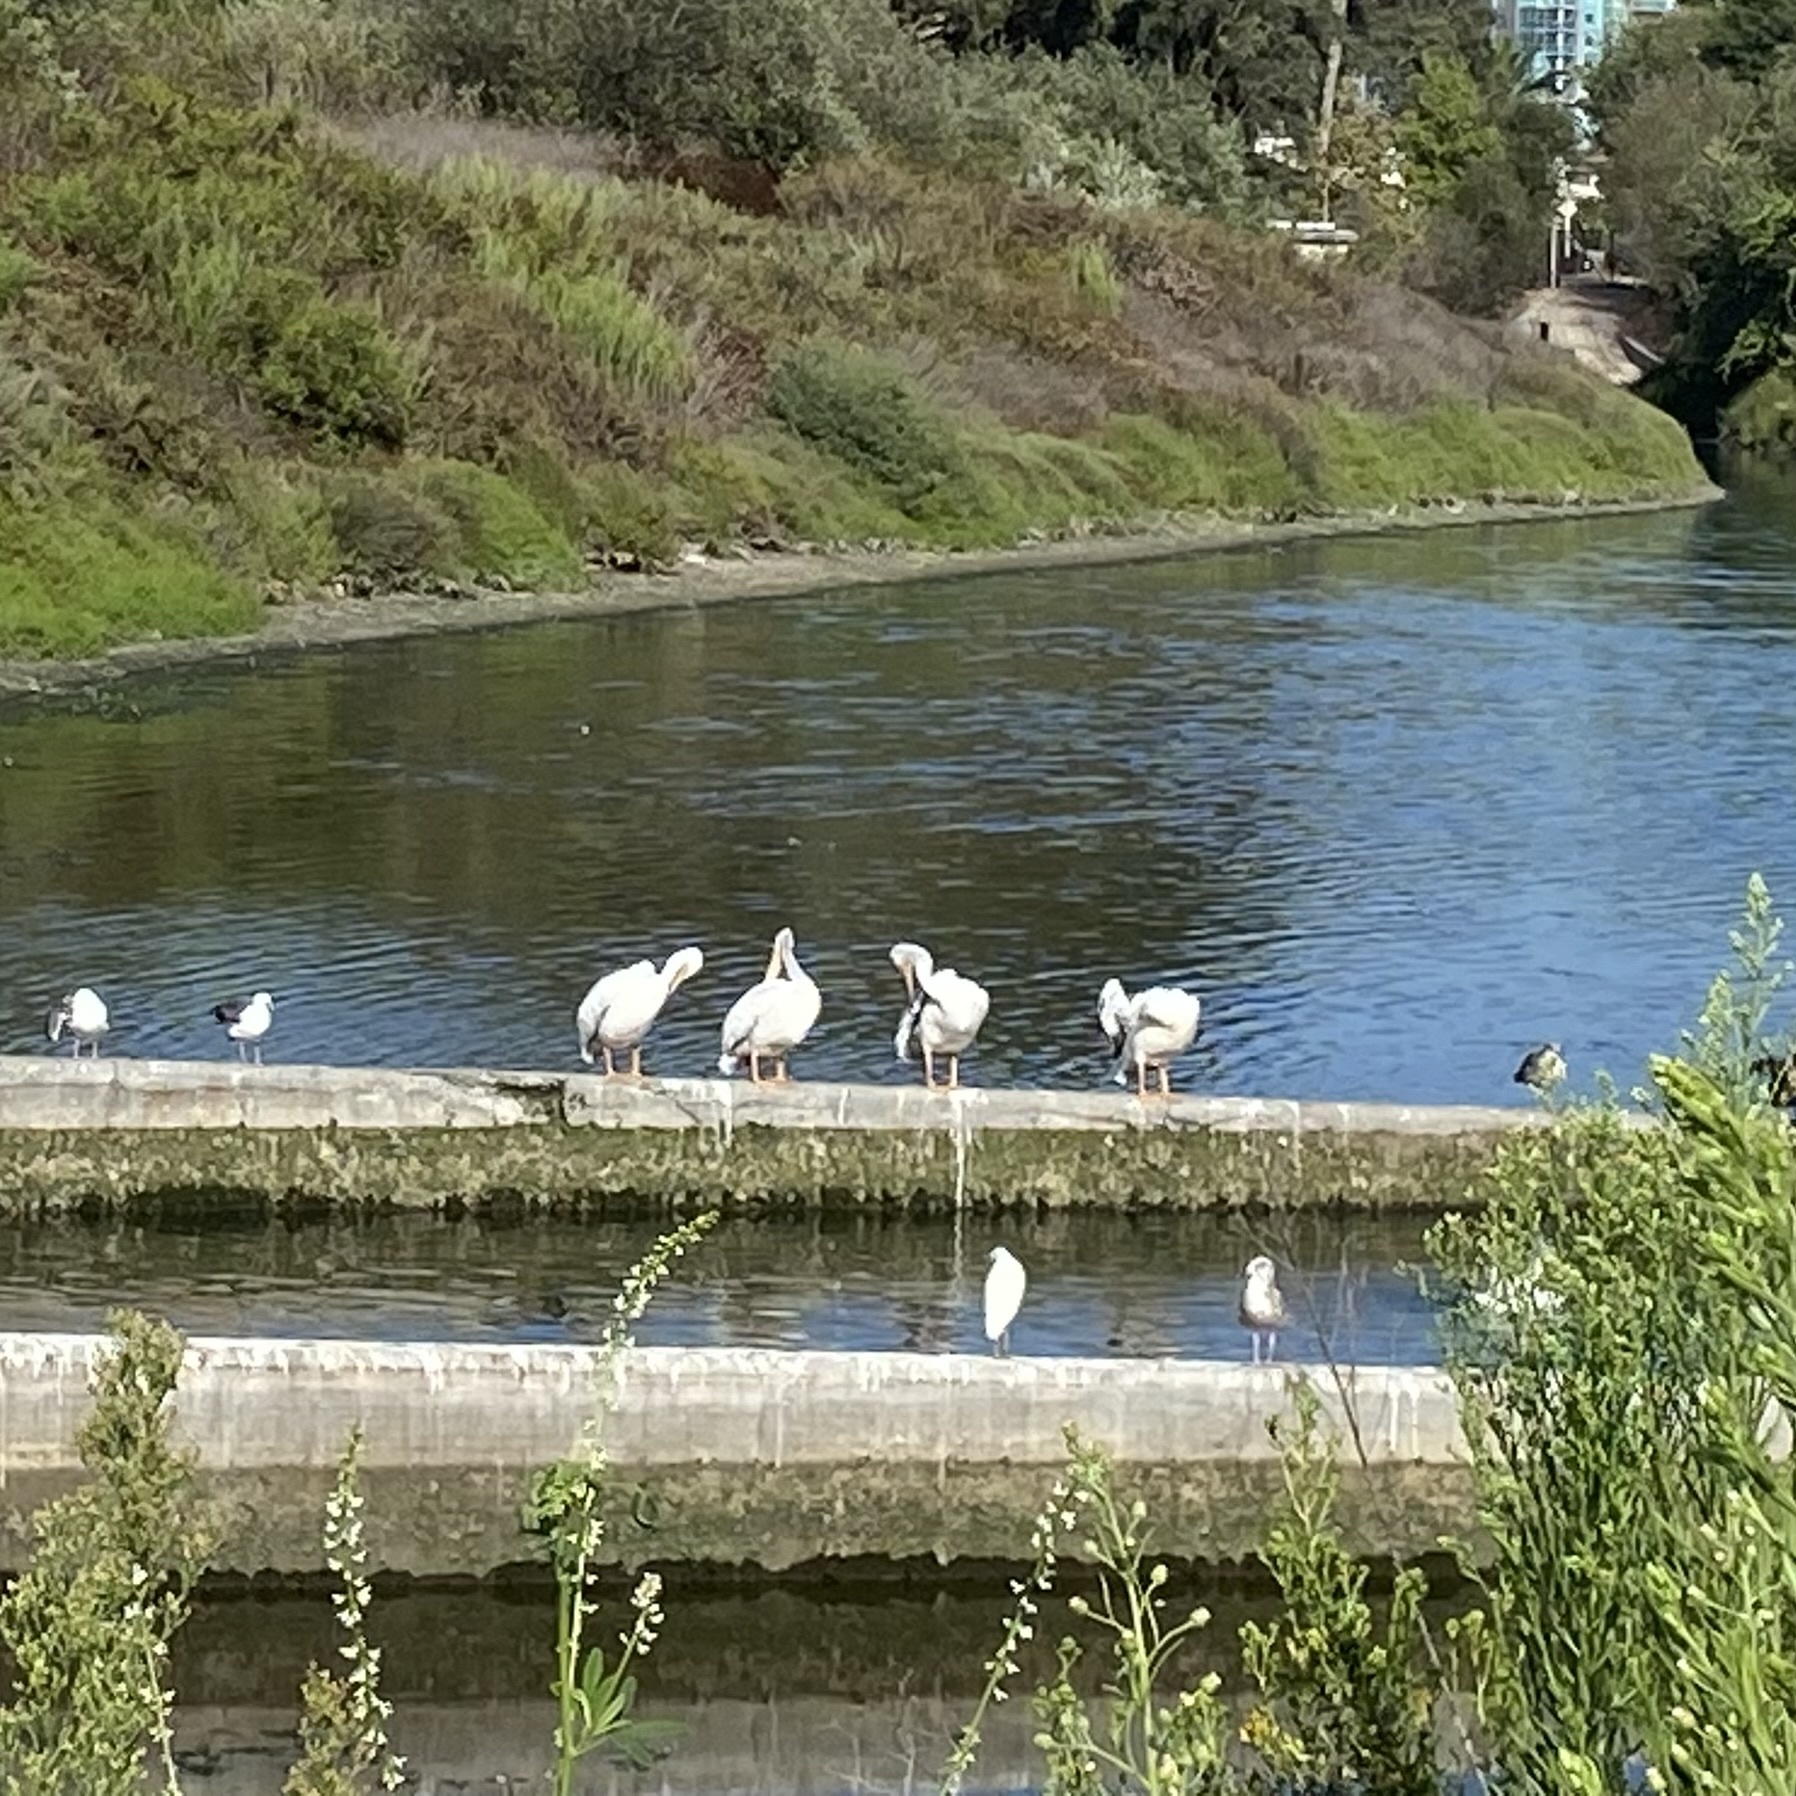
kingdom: Animalia
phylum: Chordata
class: Aves
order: Pelecaniformes
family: Pelecanidae
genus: Pelecanus
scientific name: Pelecanus erythrorhynchos
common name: American white pelican
